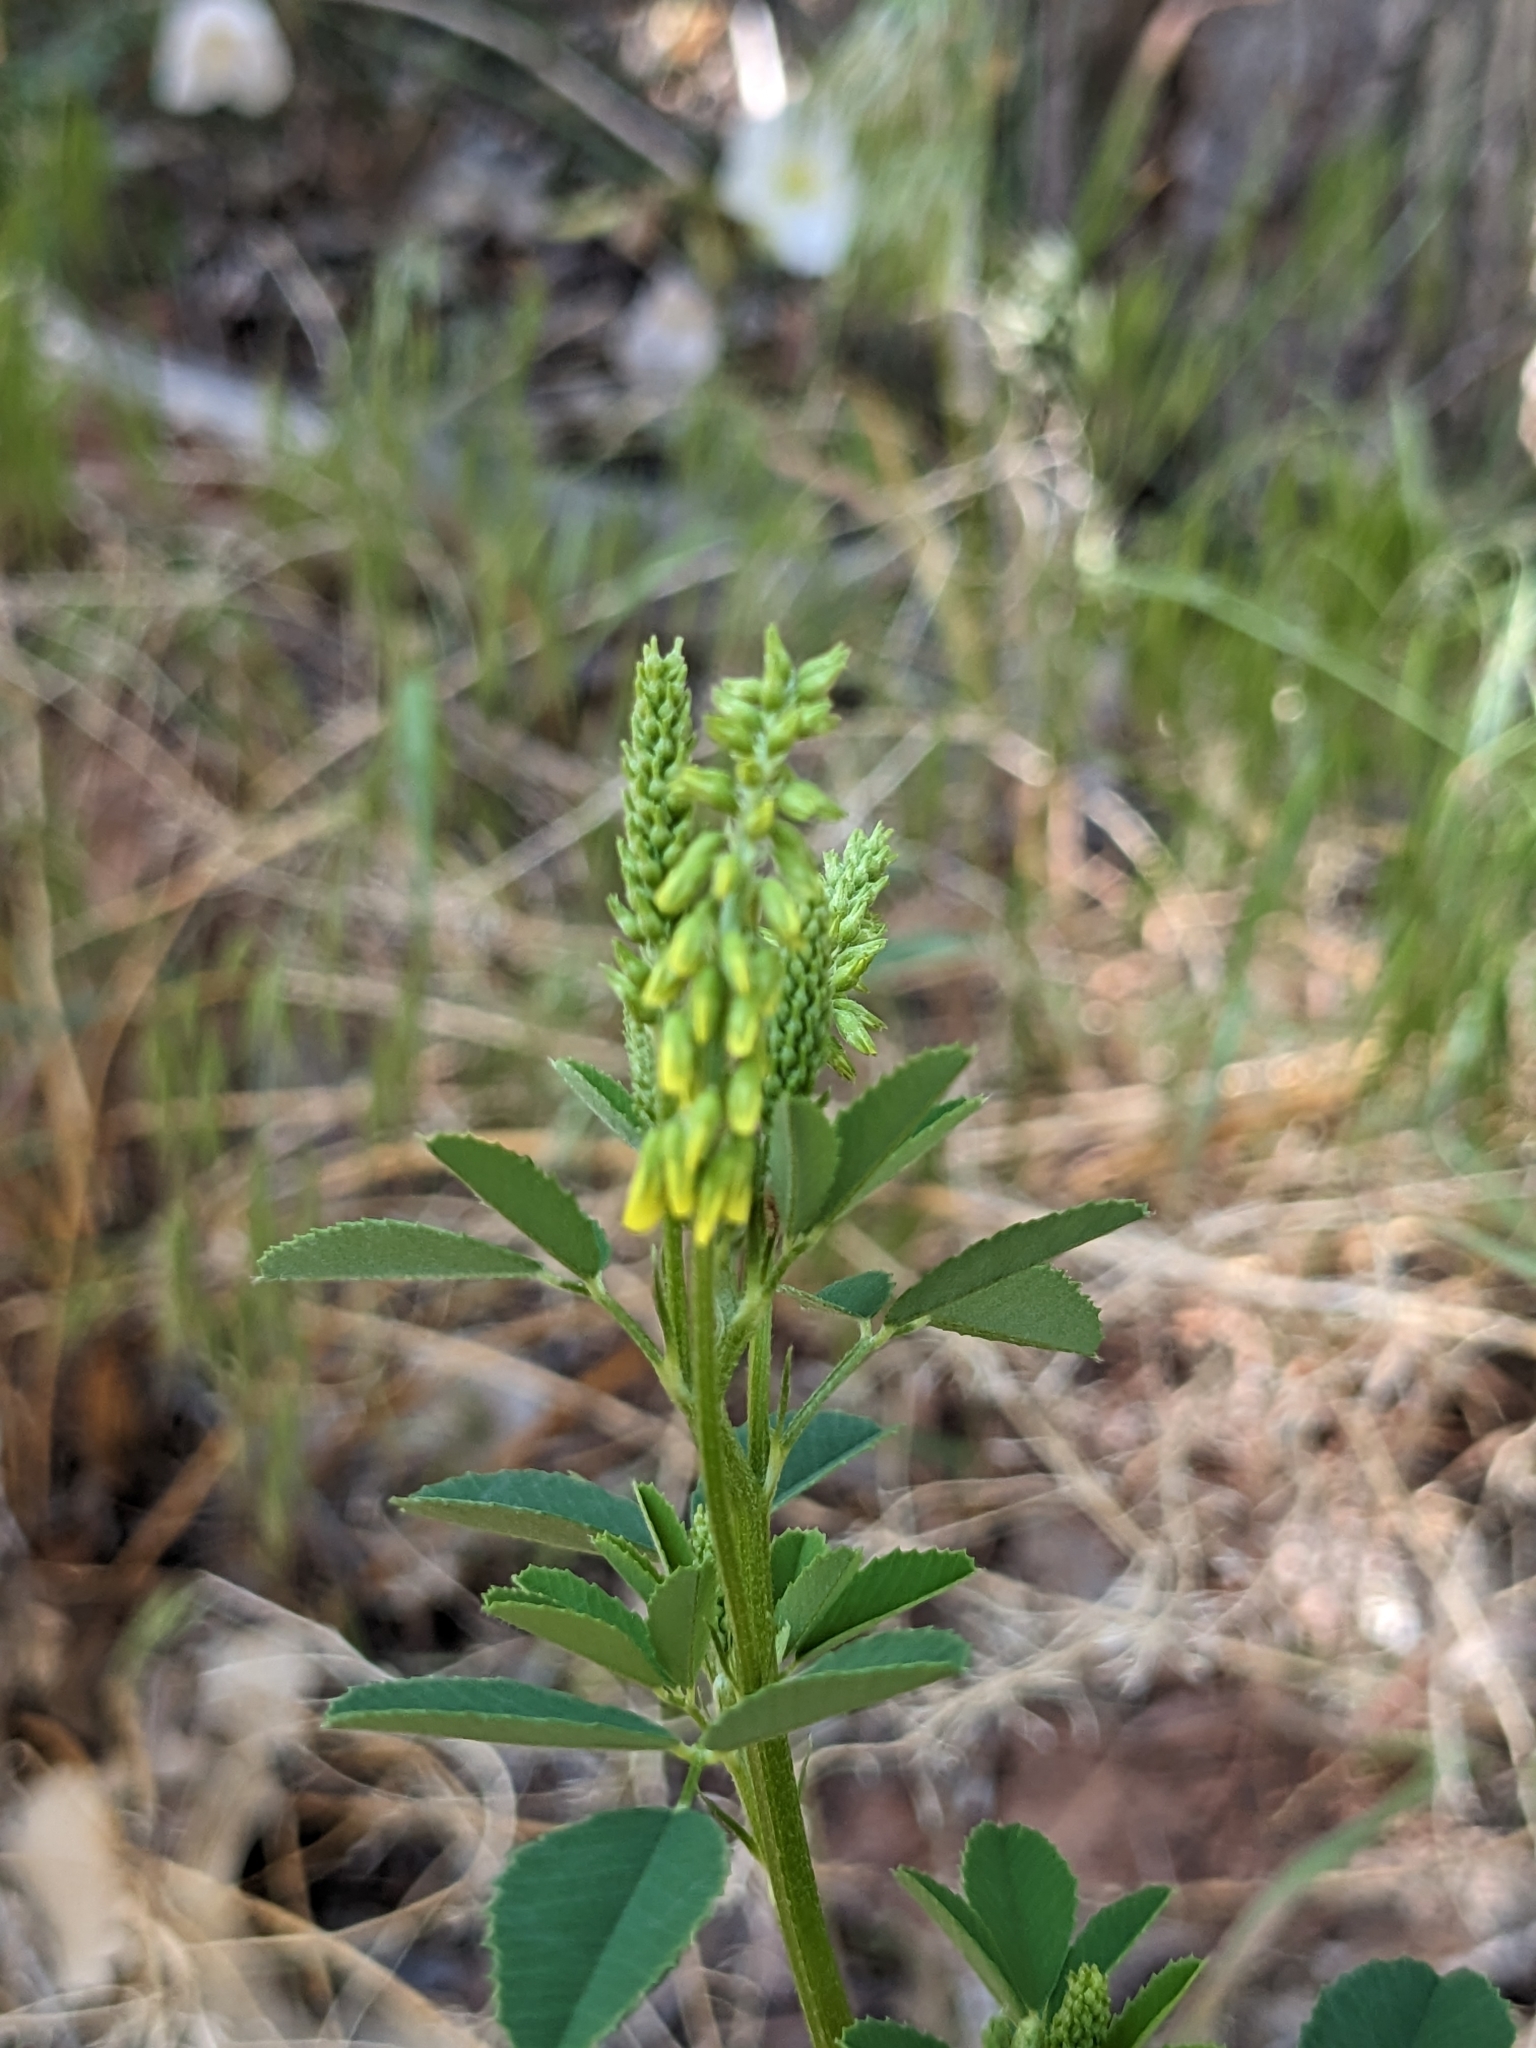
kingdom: Plantae
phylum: Tracheophyta
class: Magnoliopsida
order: Fabales
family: Fabaceae
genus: Melilotus
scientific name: Melilotus officinalis
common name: Sweetclover
